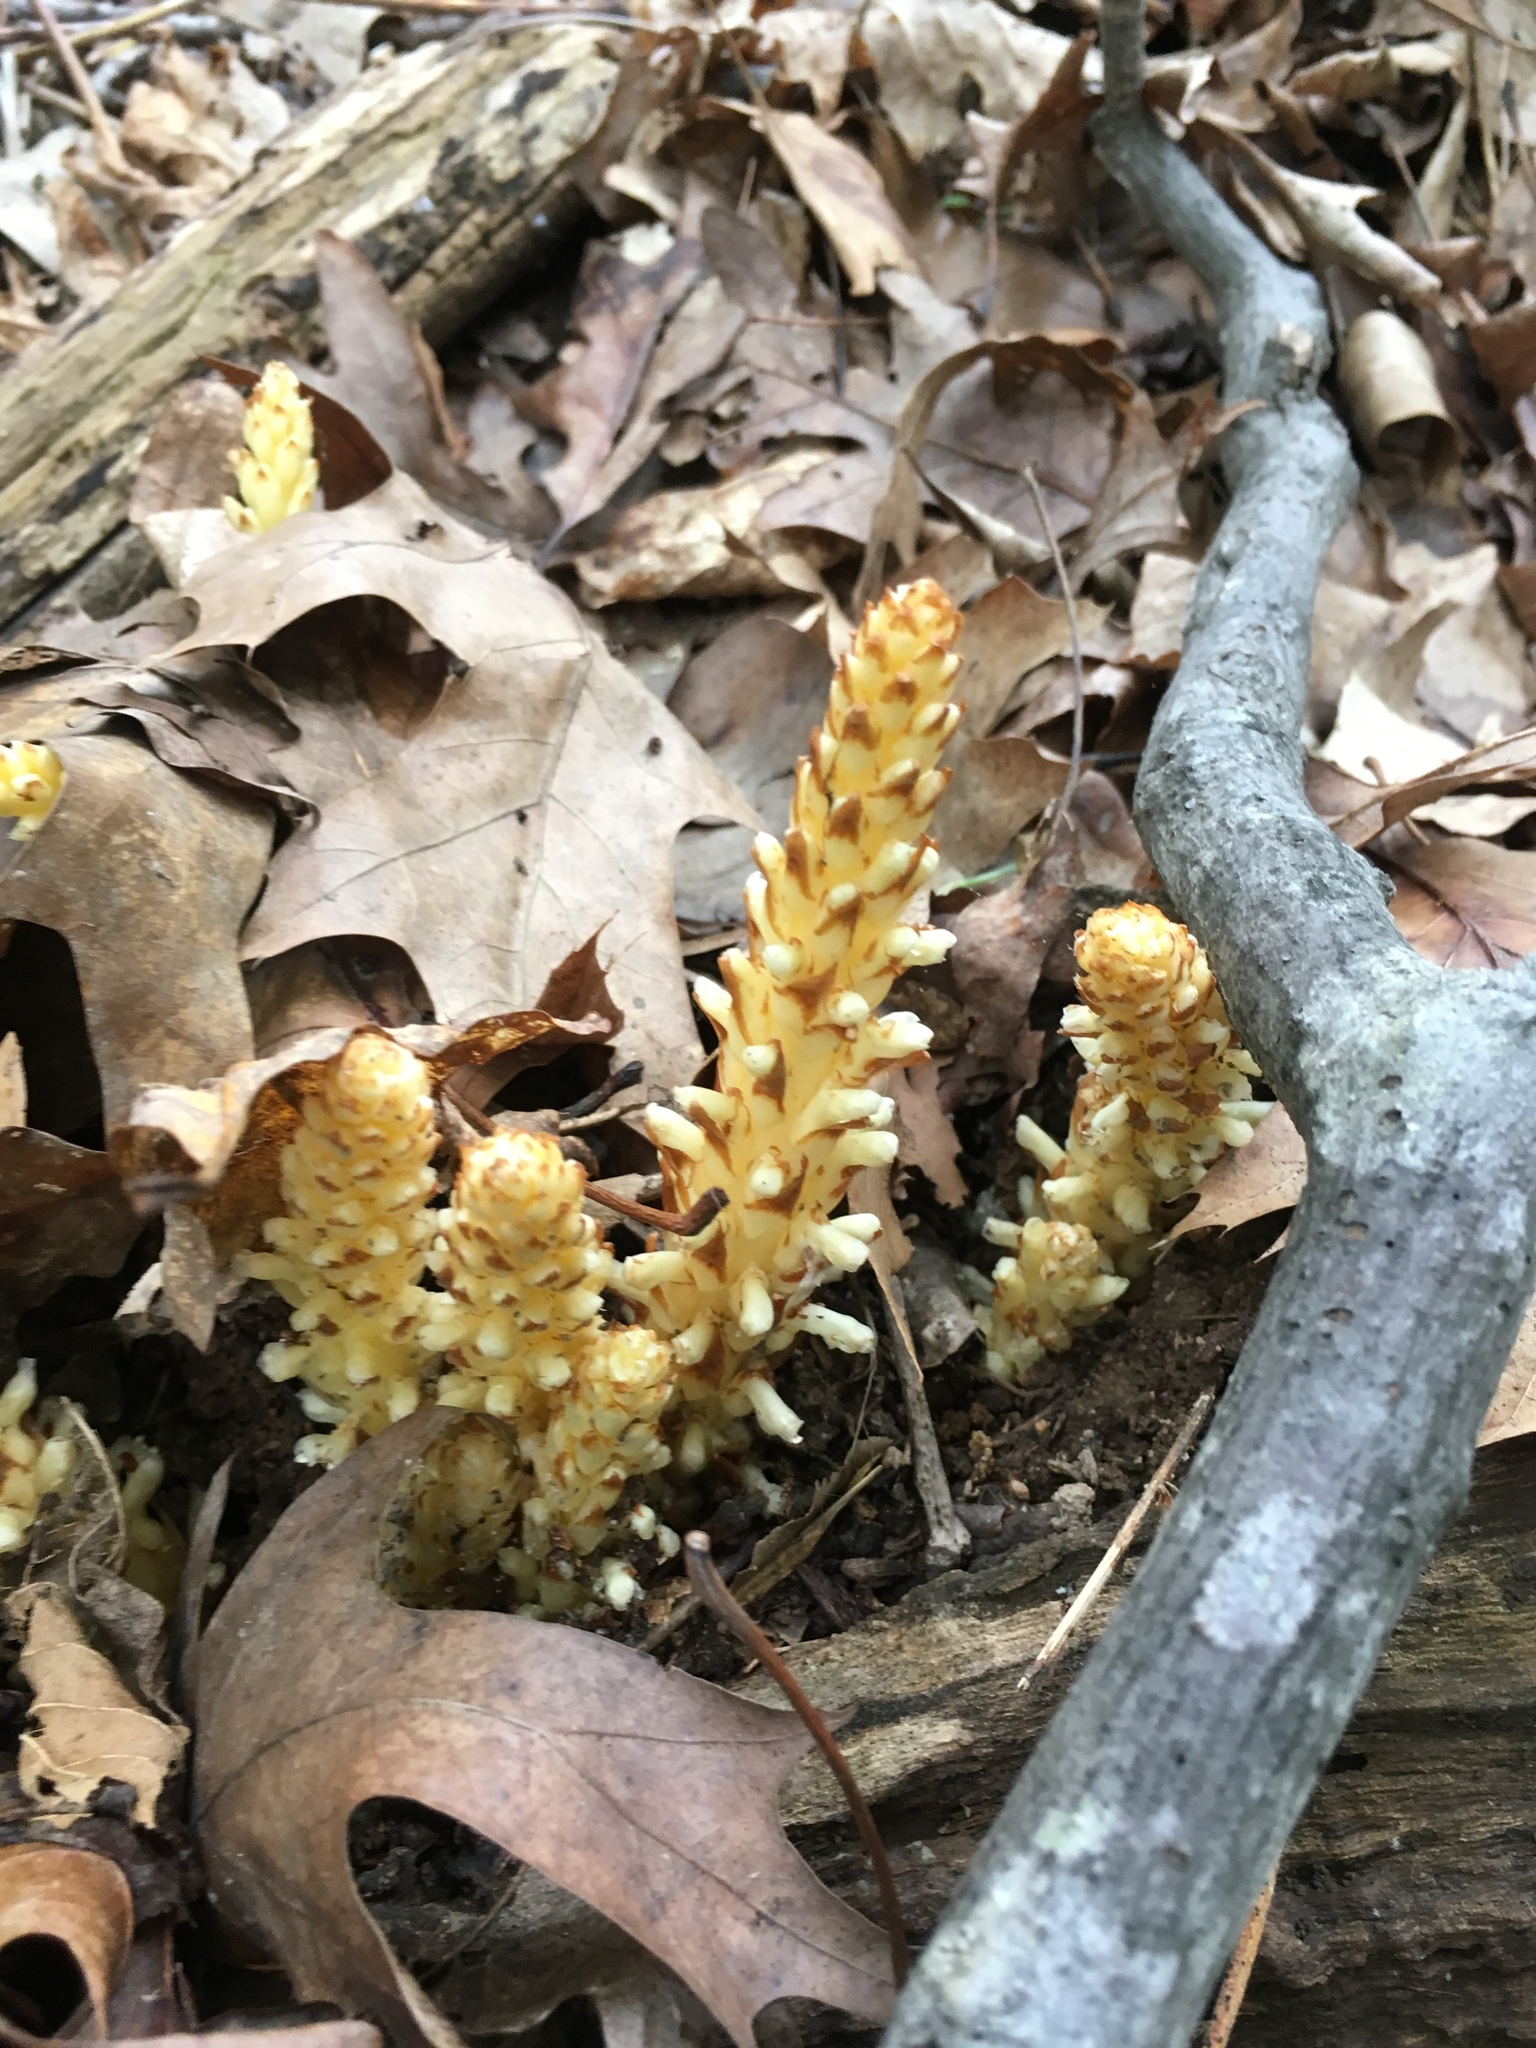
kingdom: Plantae
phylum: Tracheophyta
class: Magnoliopsida
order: Lamiales
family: Orobanchaceae
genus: Conopholis
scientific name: Conopholis americana
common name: American cancer-root
